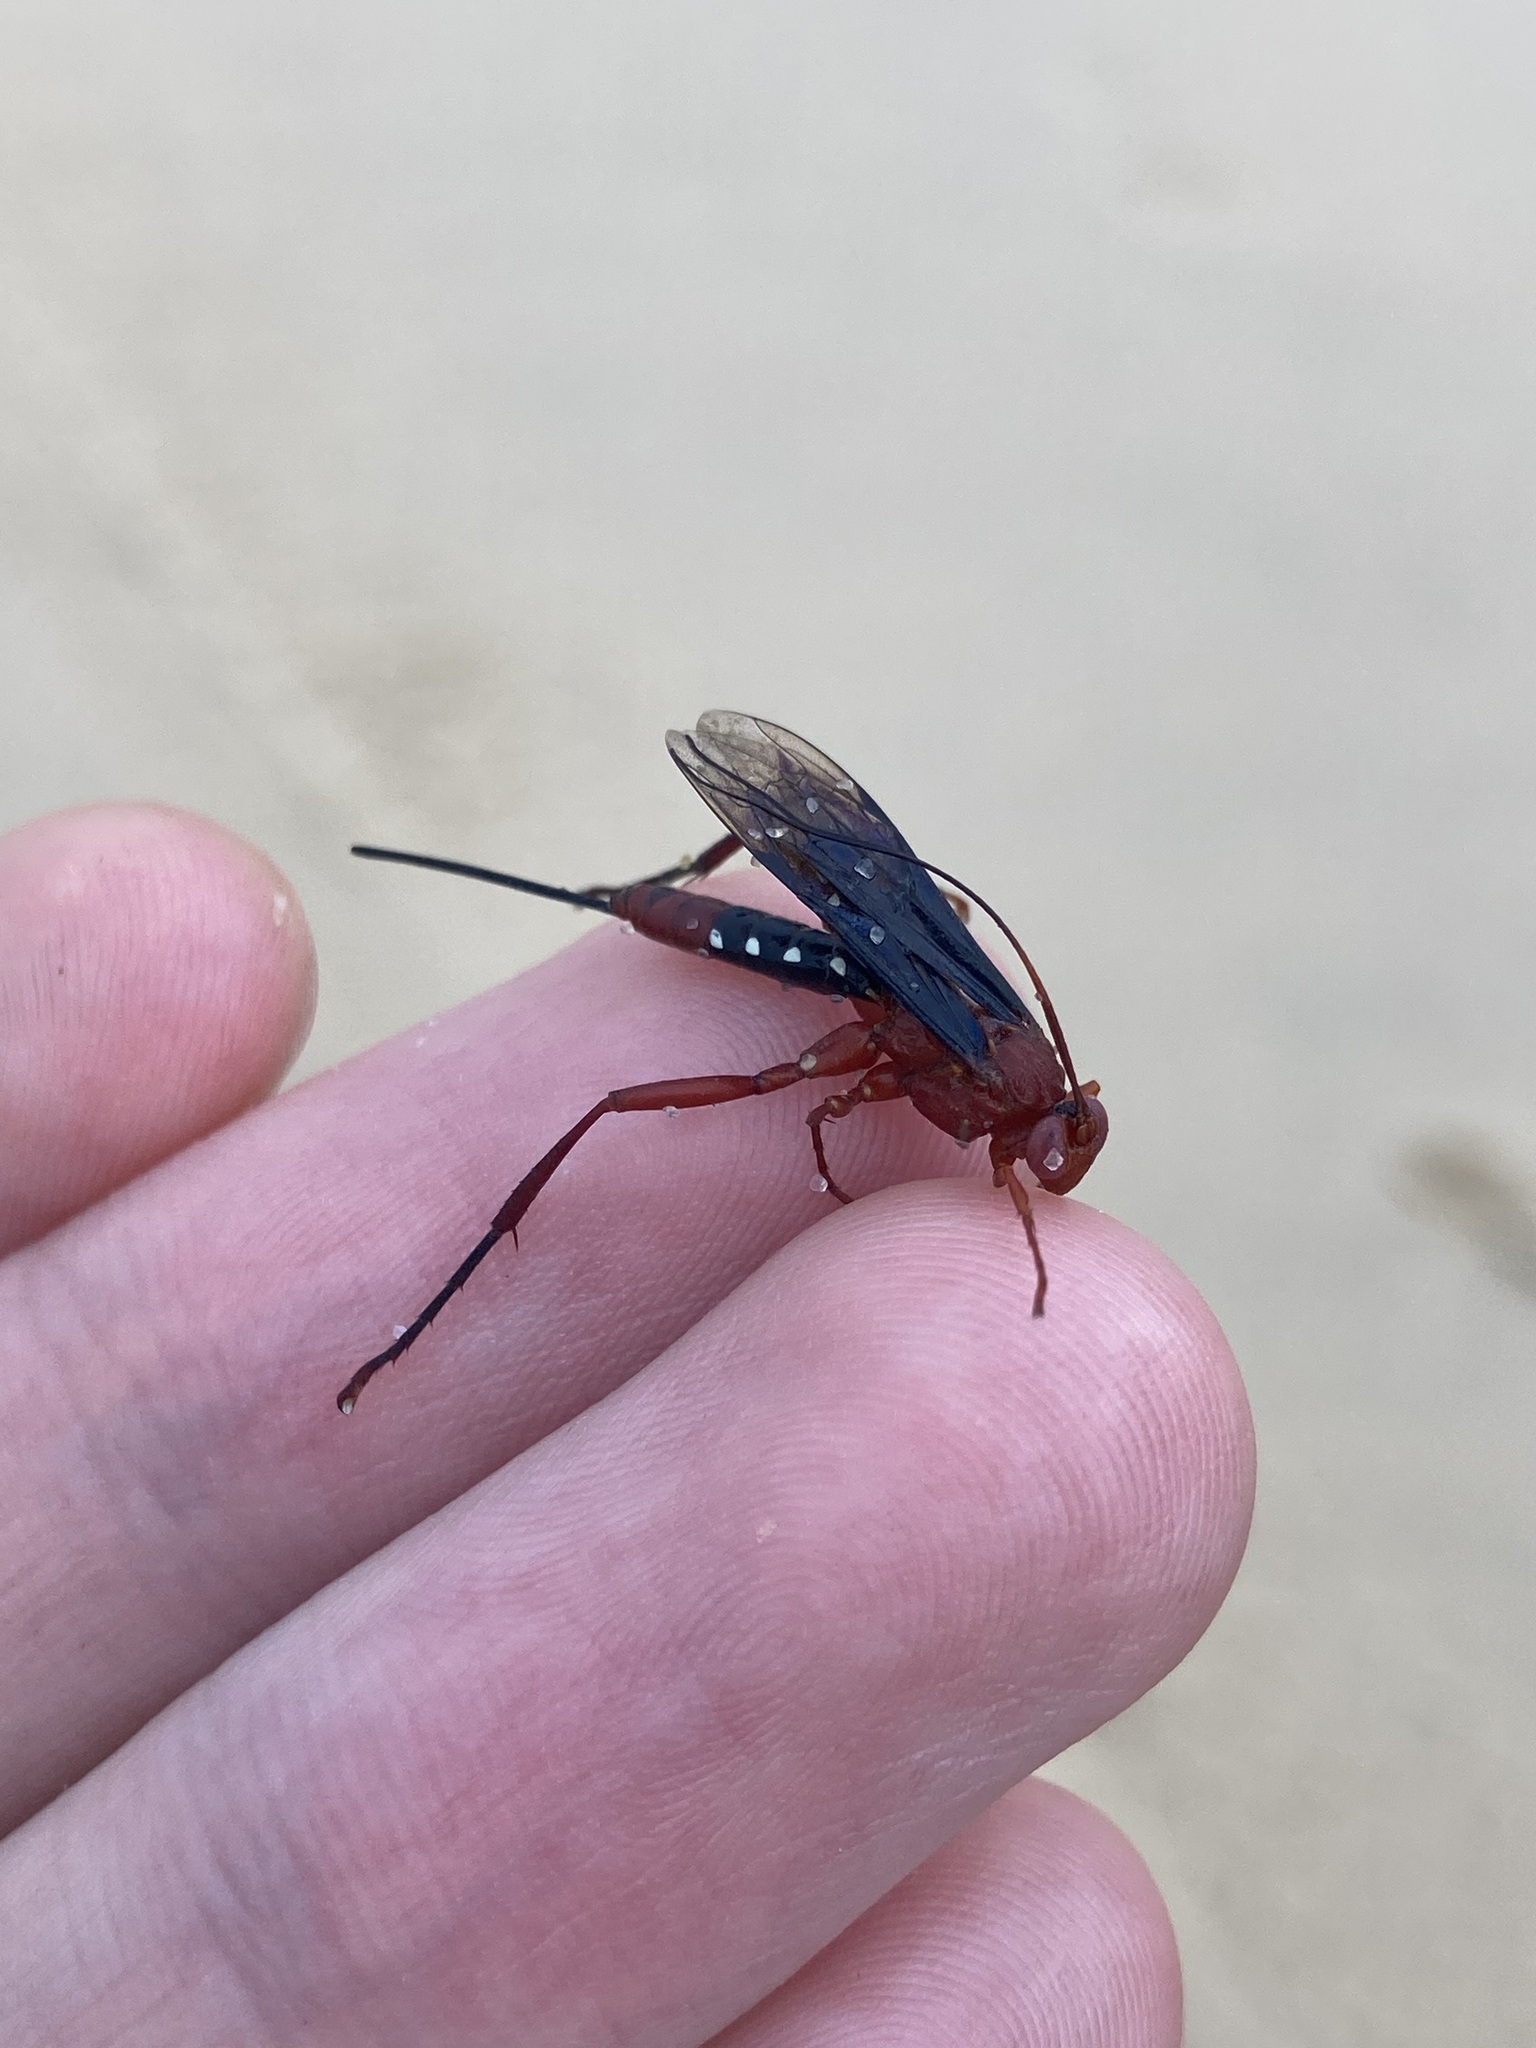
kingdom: Animalia
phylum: Arthropoda
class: Insecta
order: Hymenoptera
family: Ichneumonidae
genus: Lissopimpla
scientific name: Lissopimpla excelsa
